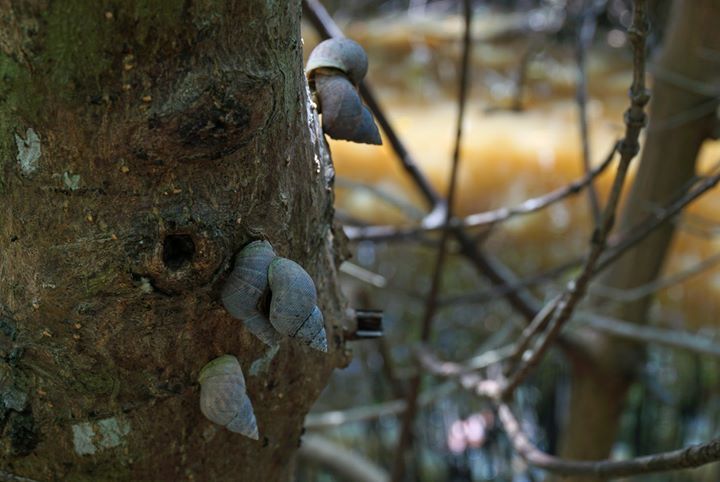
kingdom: Animalia
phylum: Mollusca
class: Gastropoda
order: Littorinimorpha
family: Littorinidae
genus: Littoraria
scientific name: Littoraria angulifera
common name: Mangrove periwinkle
